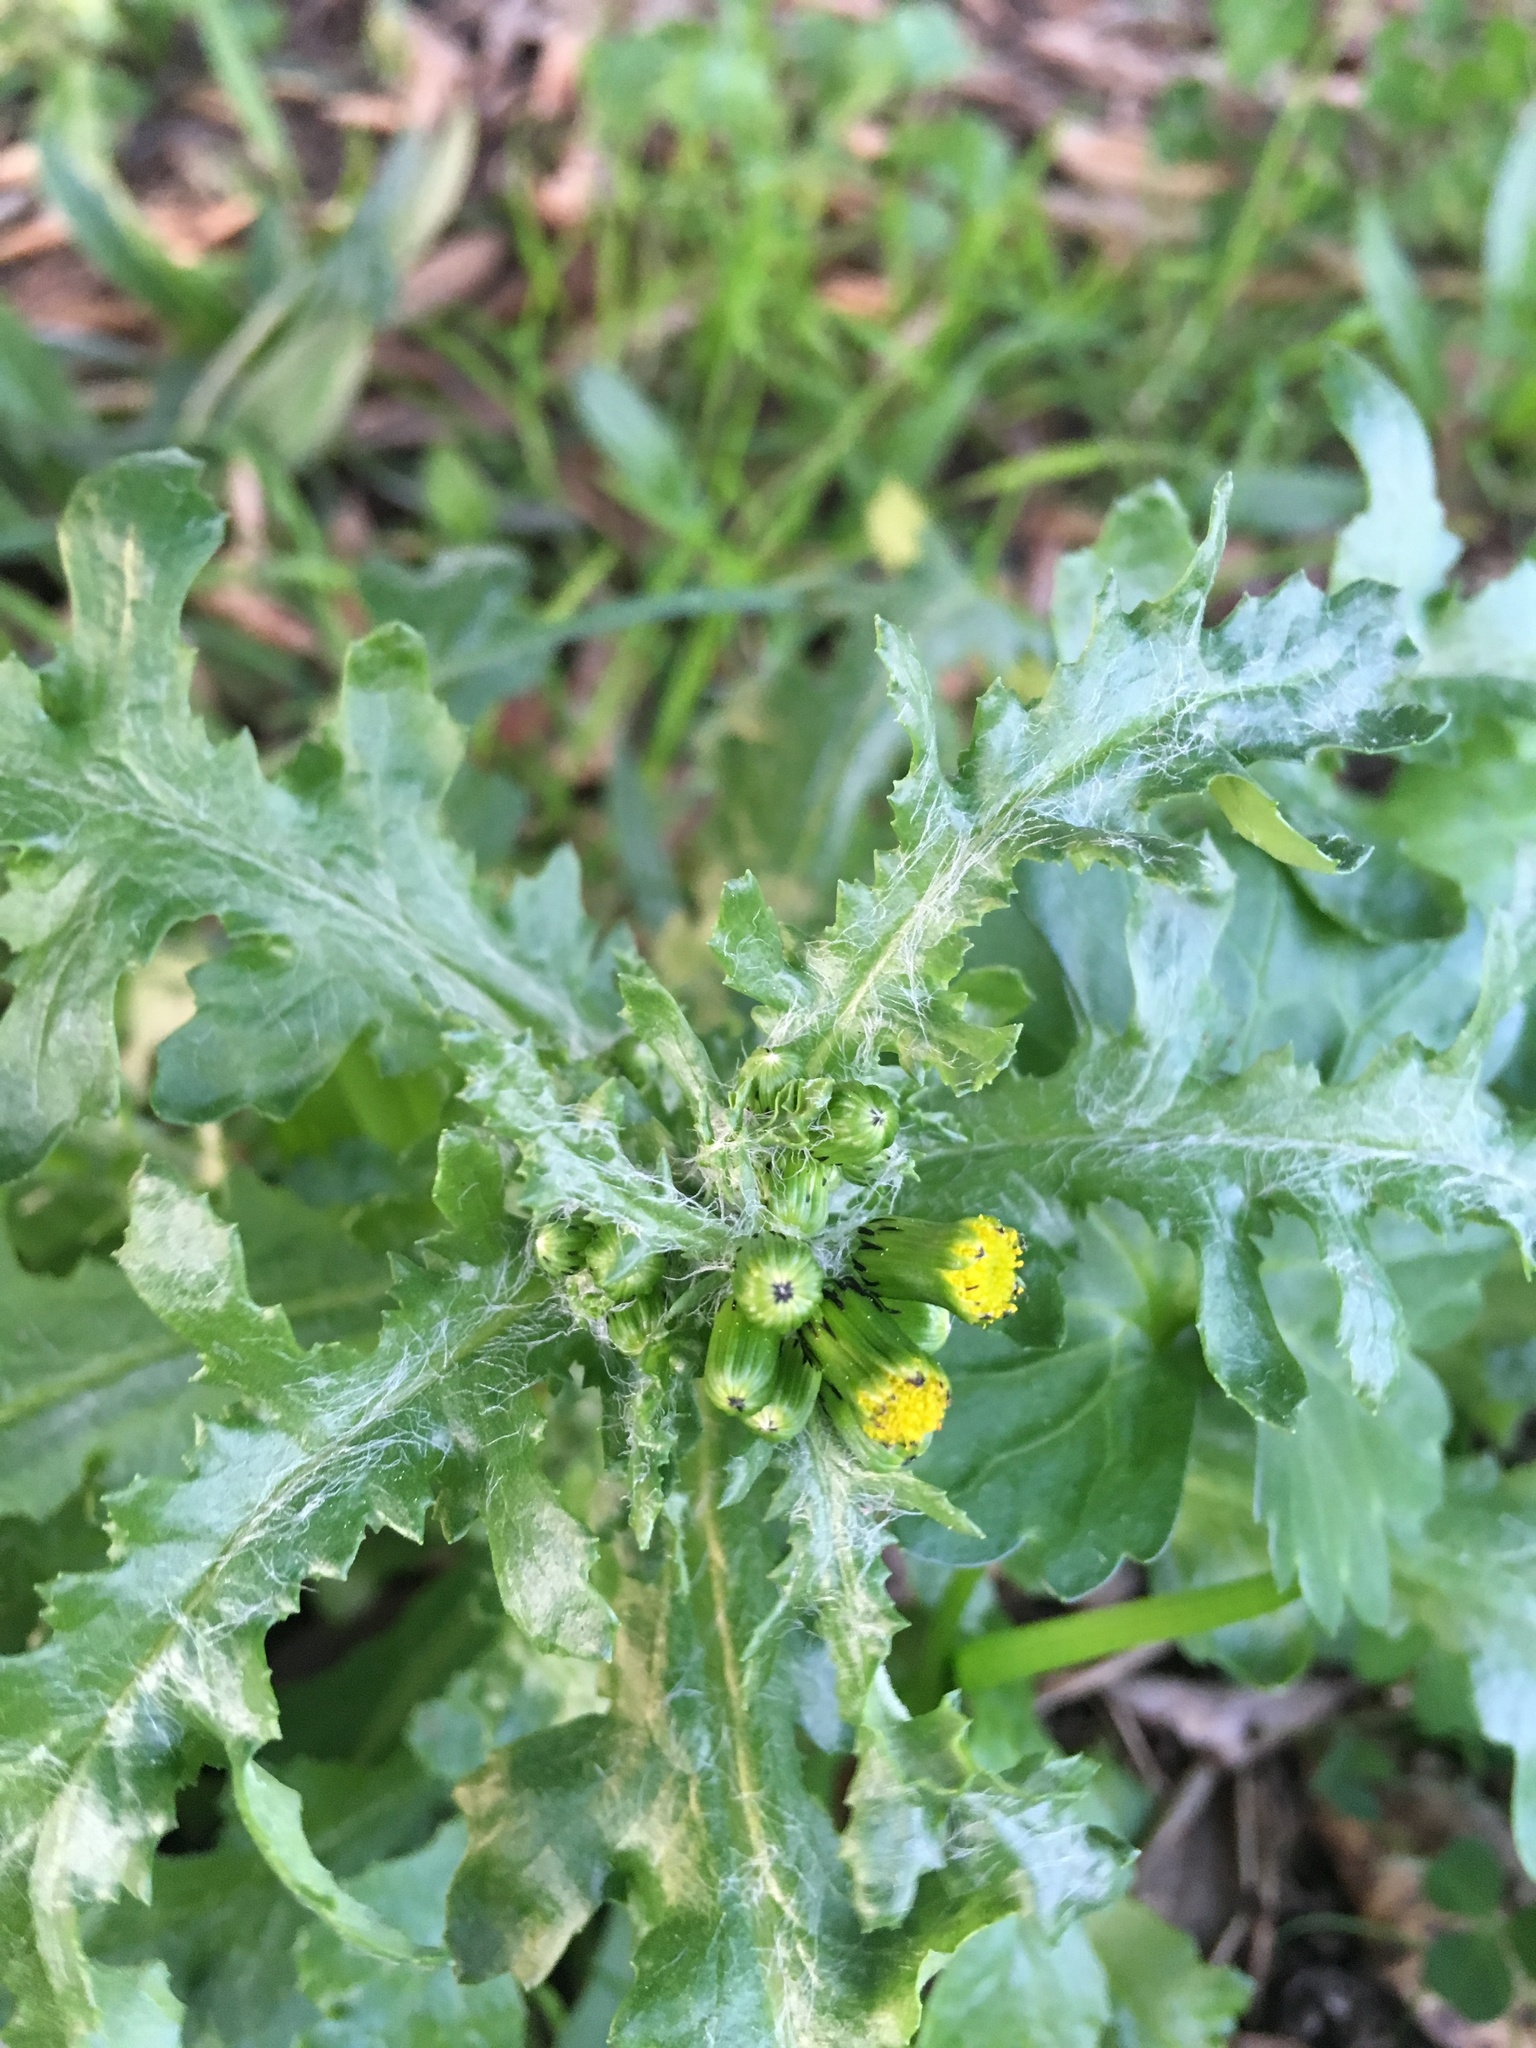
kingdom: Plantae
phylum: Tracheophyta
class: Magnoliopsida
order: Asterales
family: Asteraceae
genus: Senecio
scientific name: Senecio vulgaris
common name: Old-man-in-the-spring
